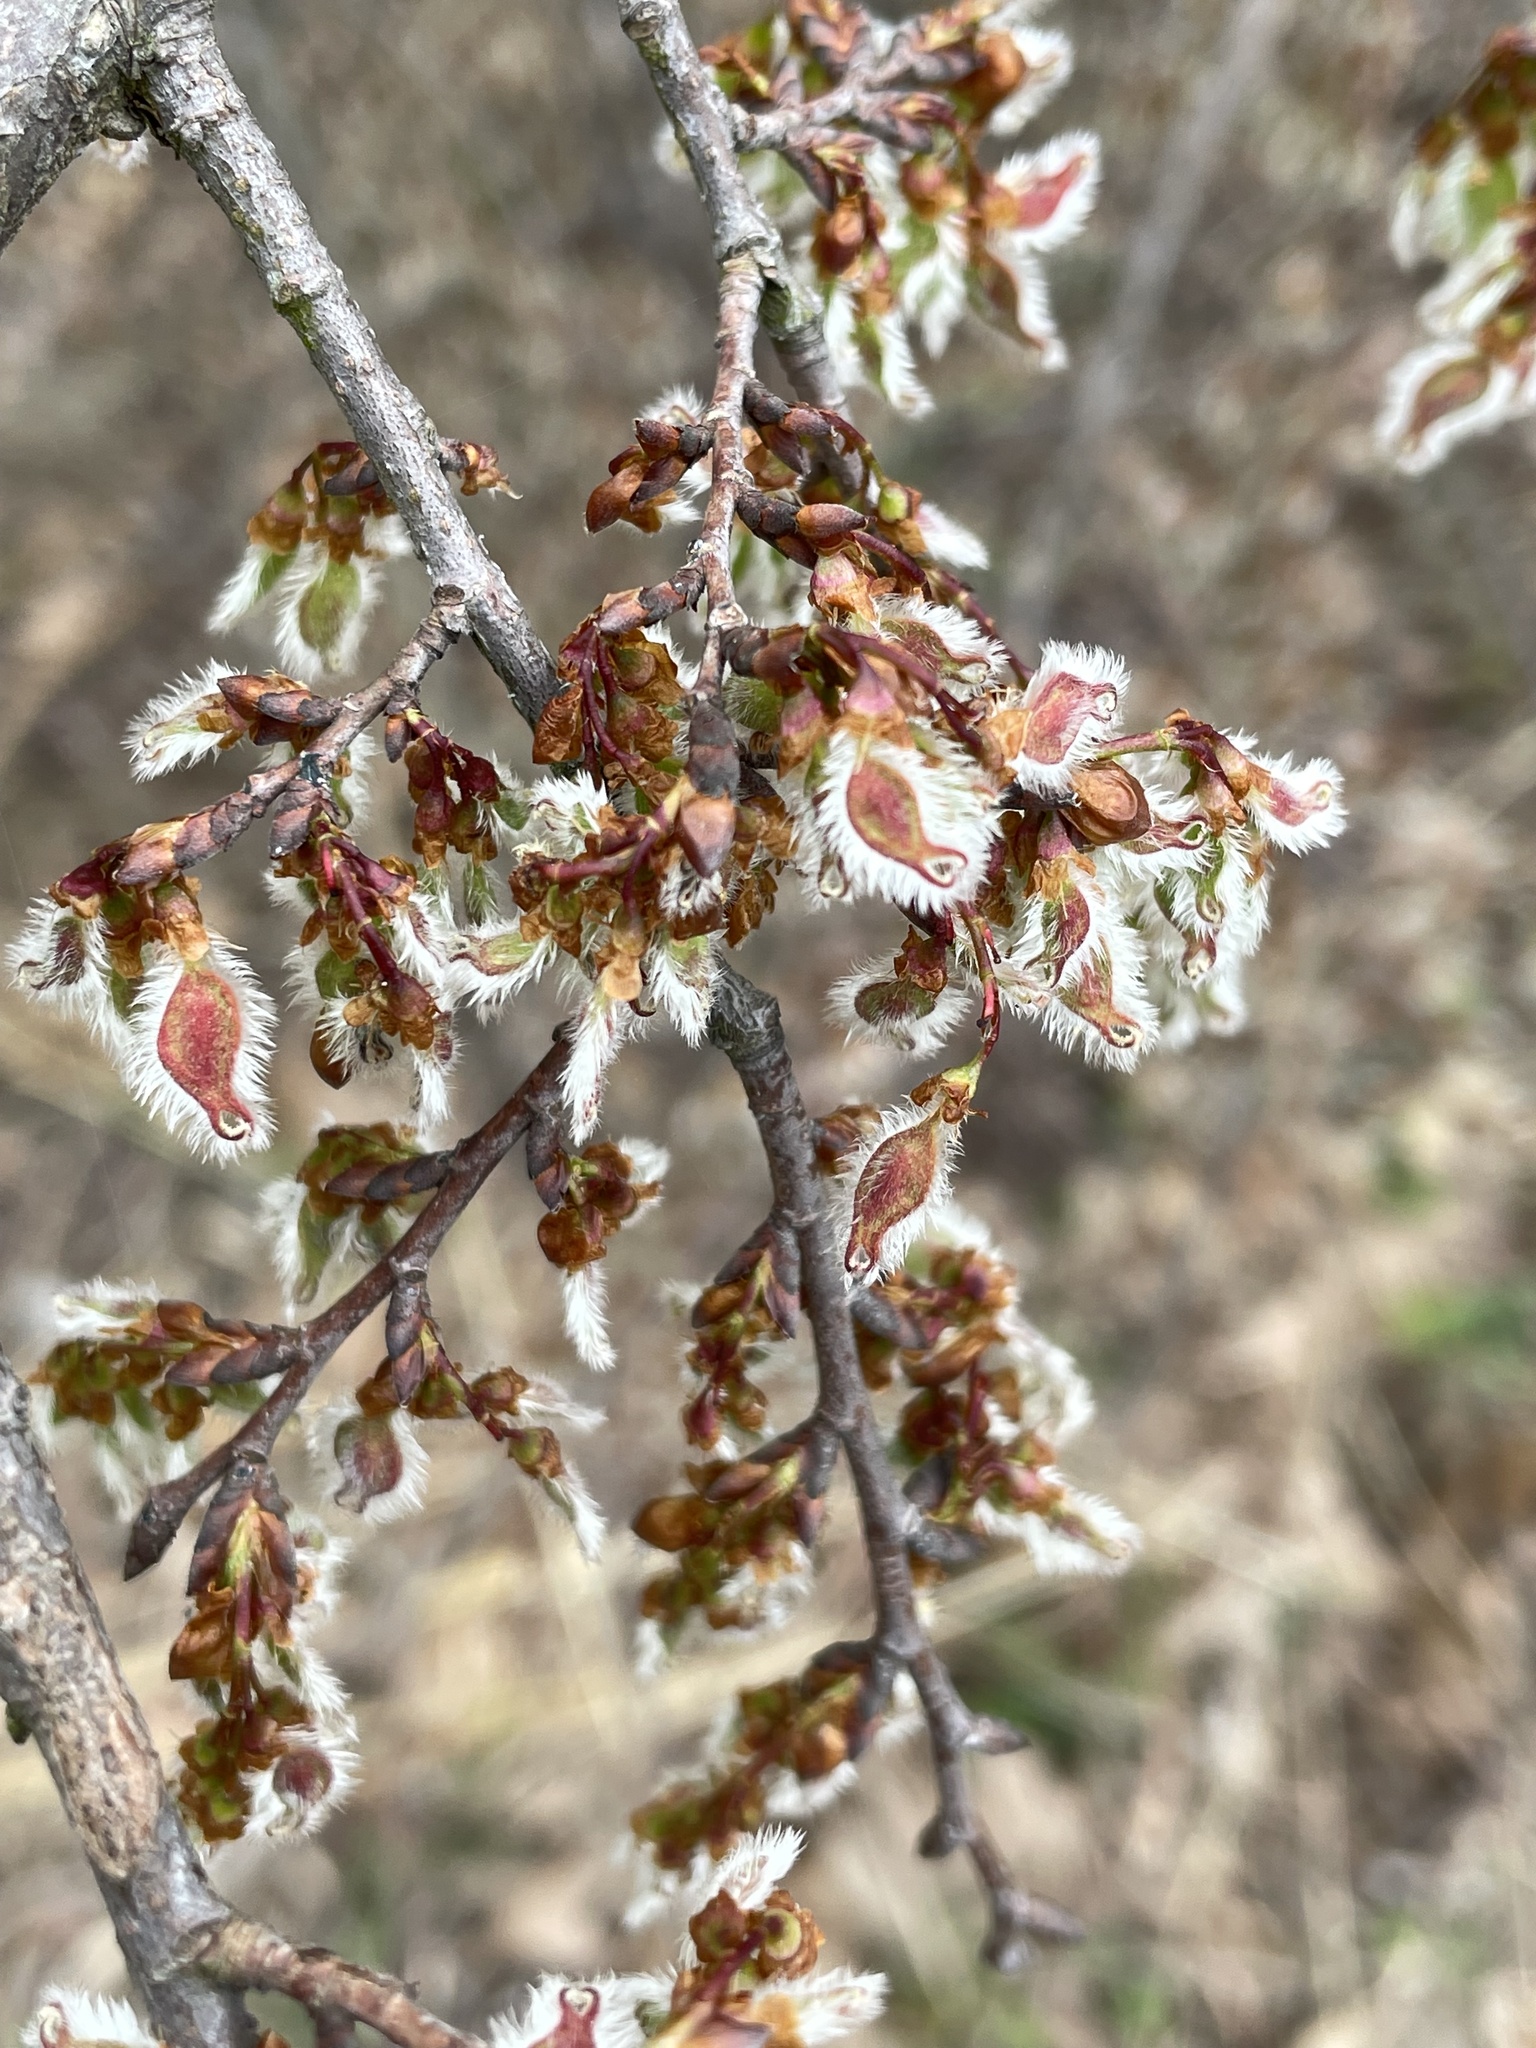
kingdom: Plantae
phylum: Tracheophyta
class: Magnoliopsida
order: Rosales
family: Ulmaceae
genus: Ulmus
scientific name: Ulmus alata
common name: Winged elm
